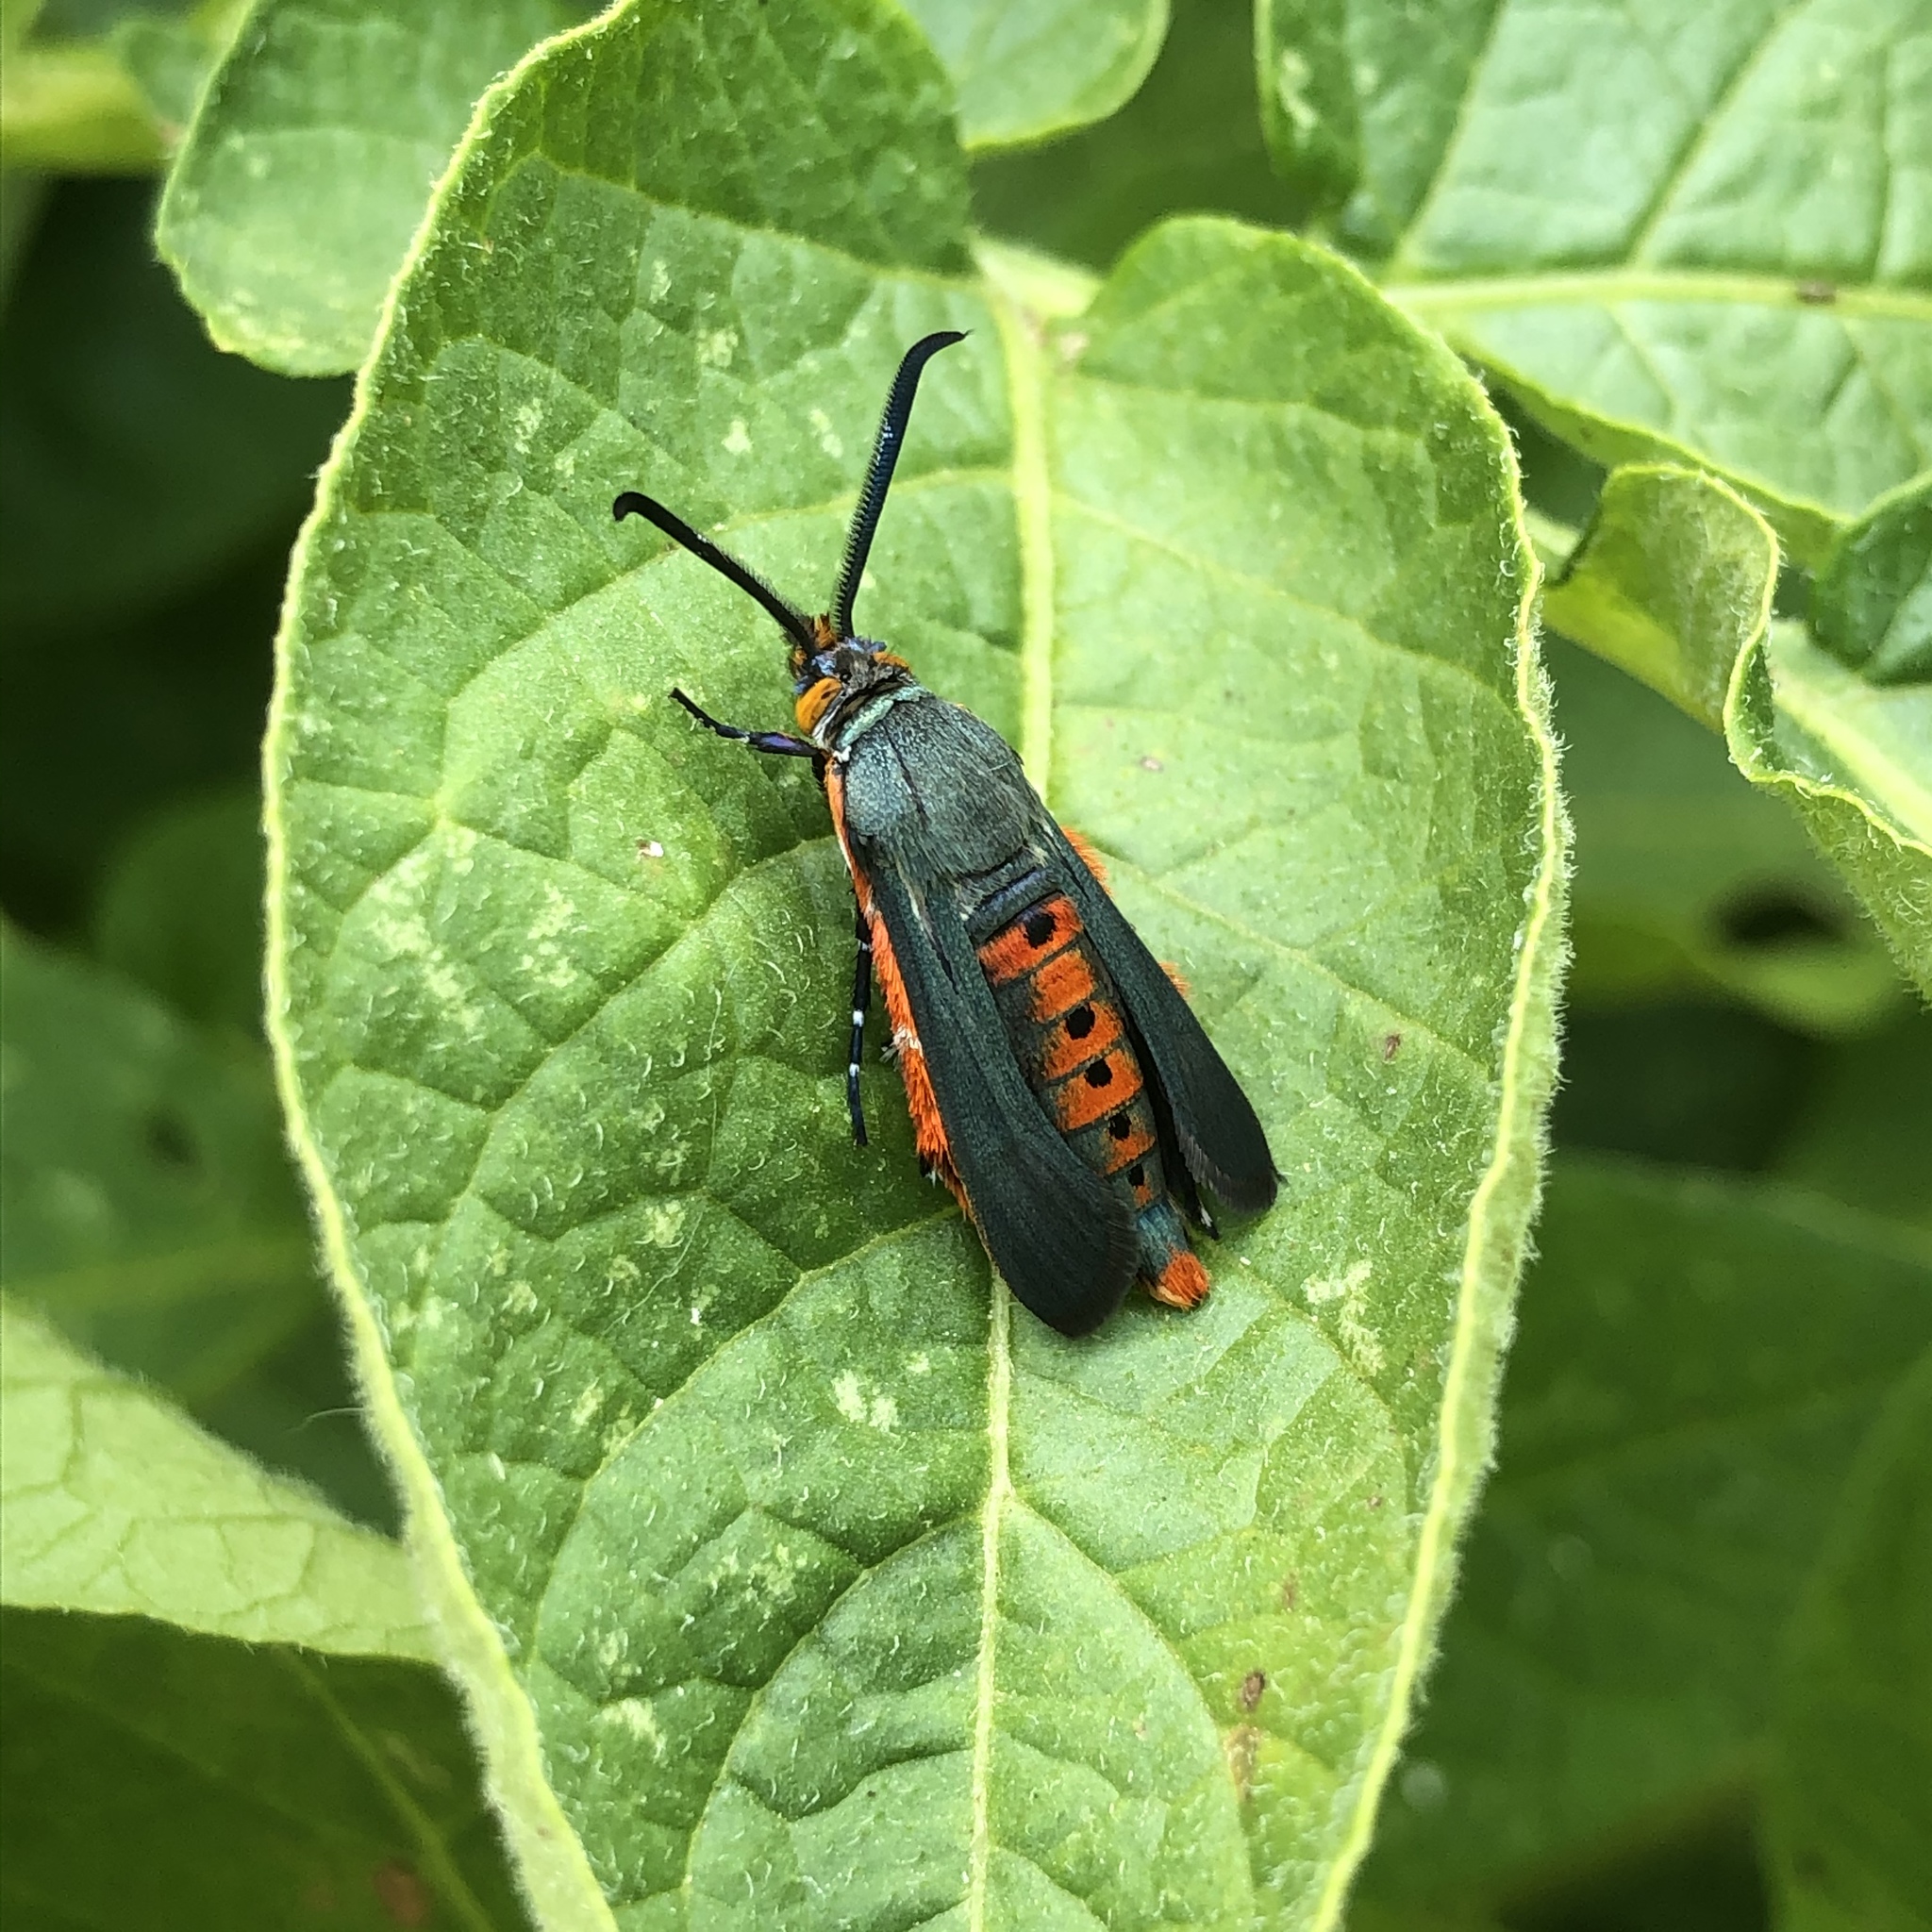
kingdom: Animalia
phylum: Arthropoda
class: Insecta
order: Lepidoptera
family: Sesiidae
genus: Eichlinia
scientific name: Eichlinia calabaza
